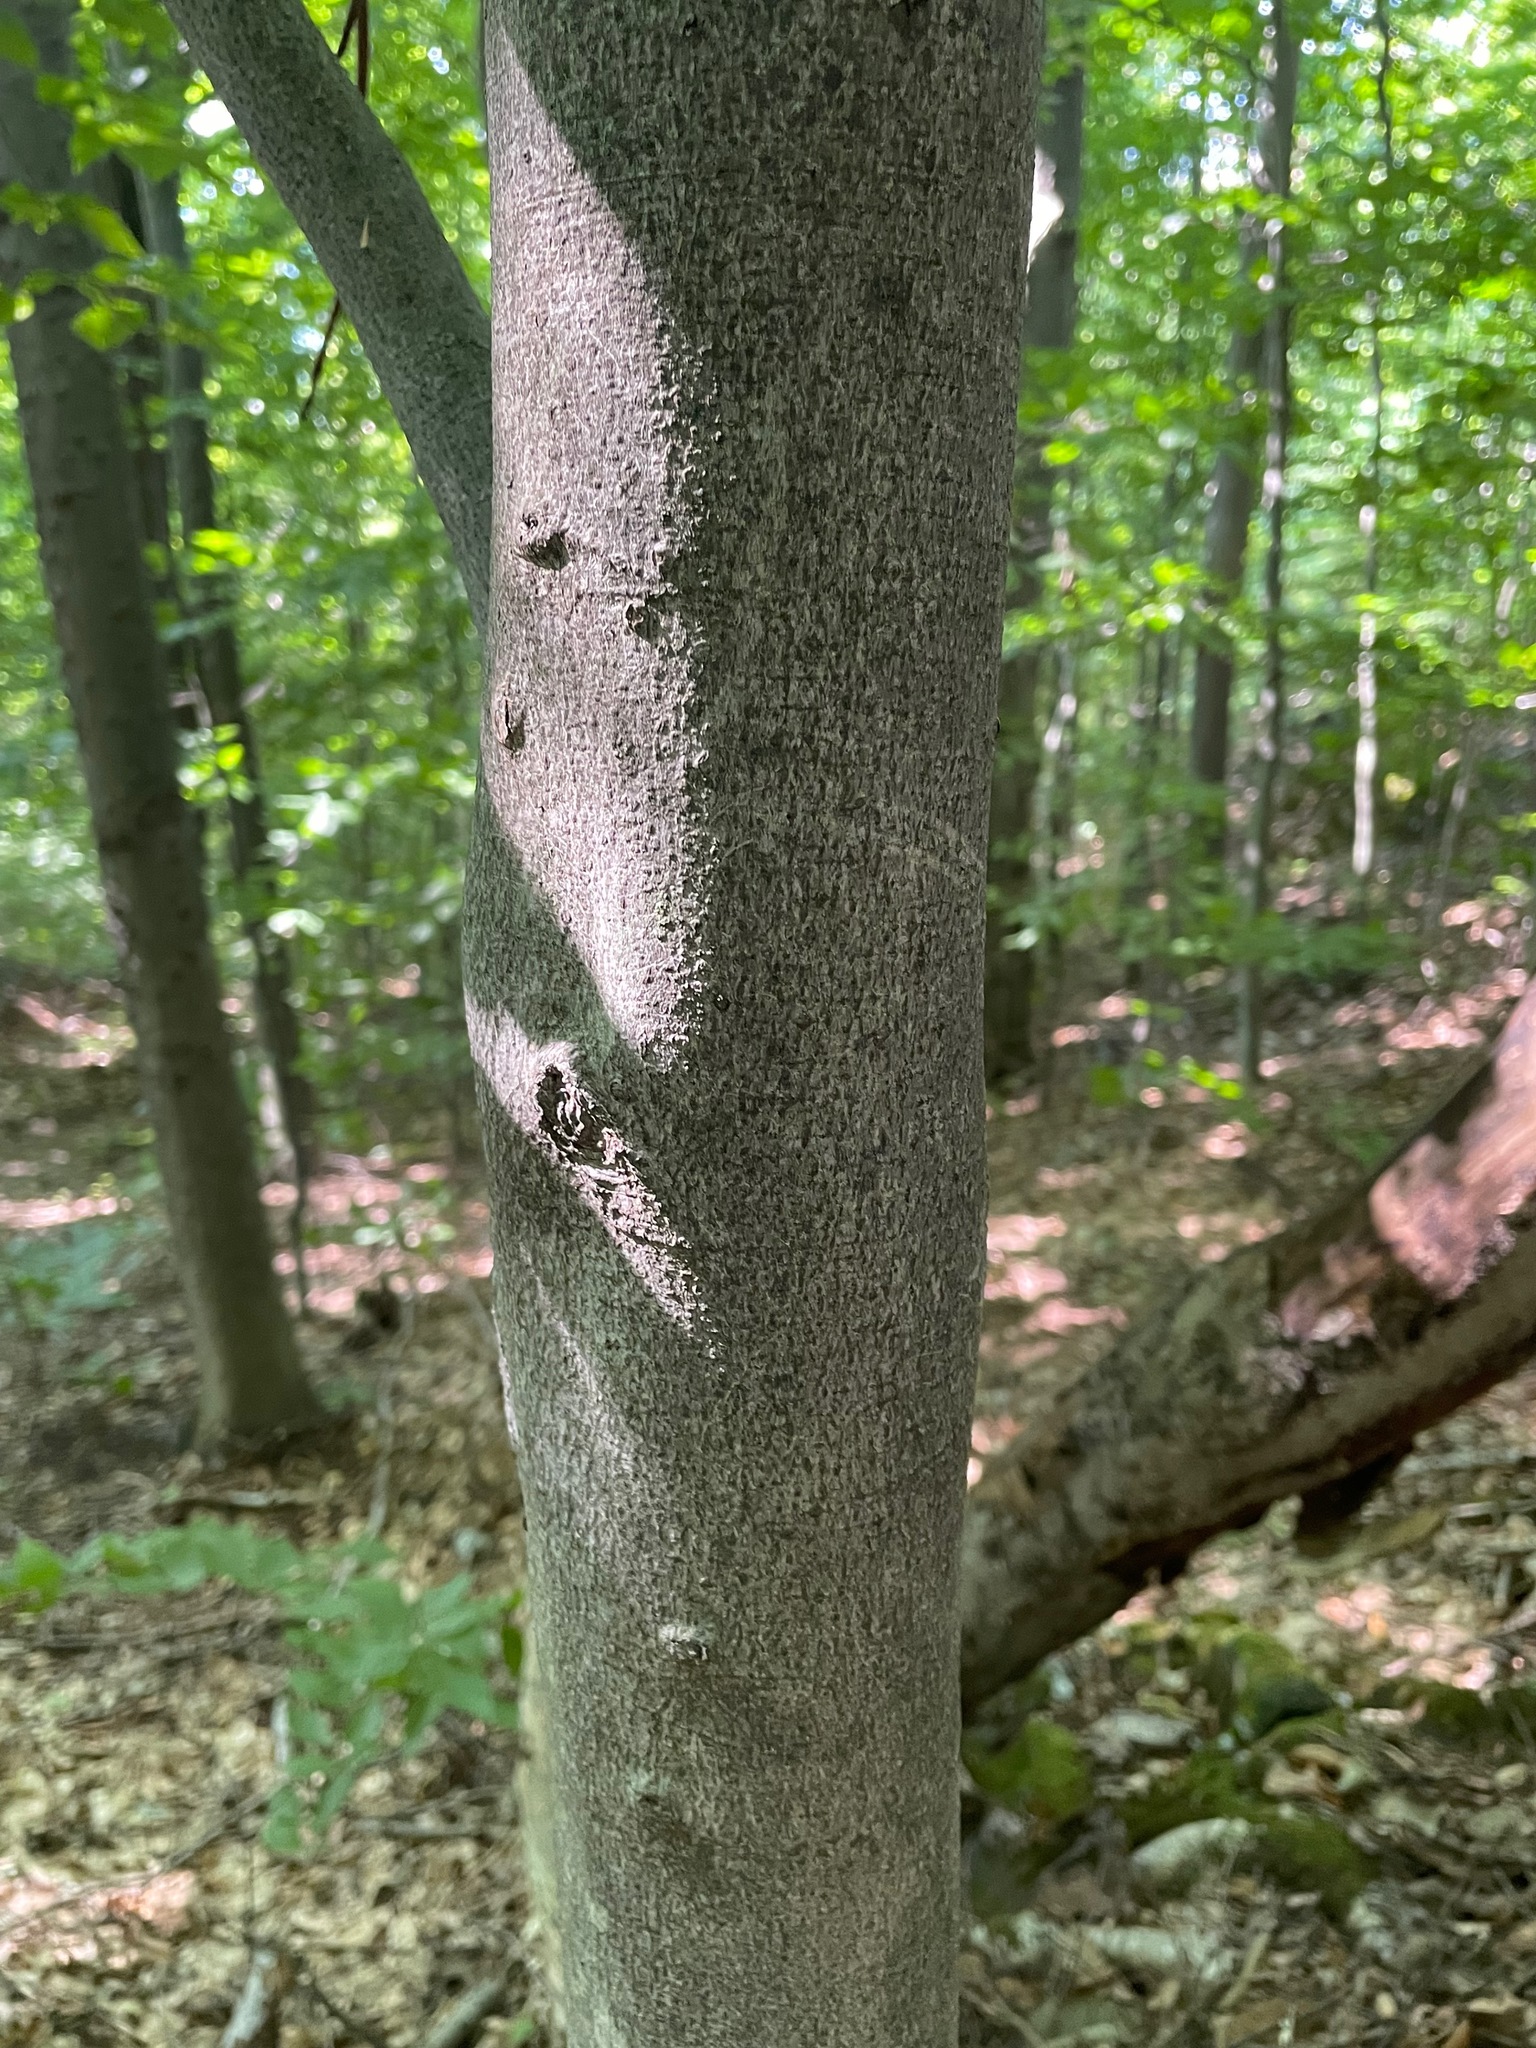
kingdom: Plantae
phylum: Tracheophyta
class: Magnoliopsida
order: Fagales
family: Fagaceae
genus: Fagus
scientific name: Fagus grandifolia
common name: American beech
